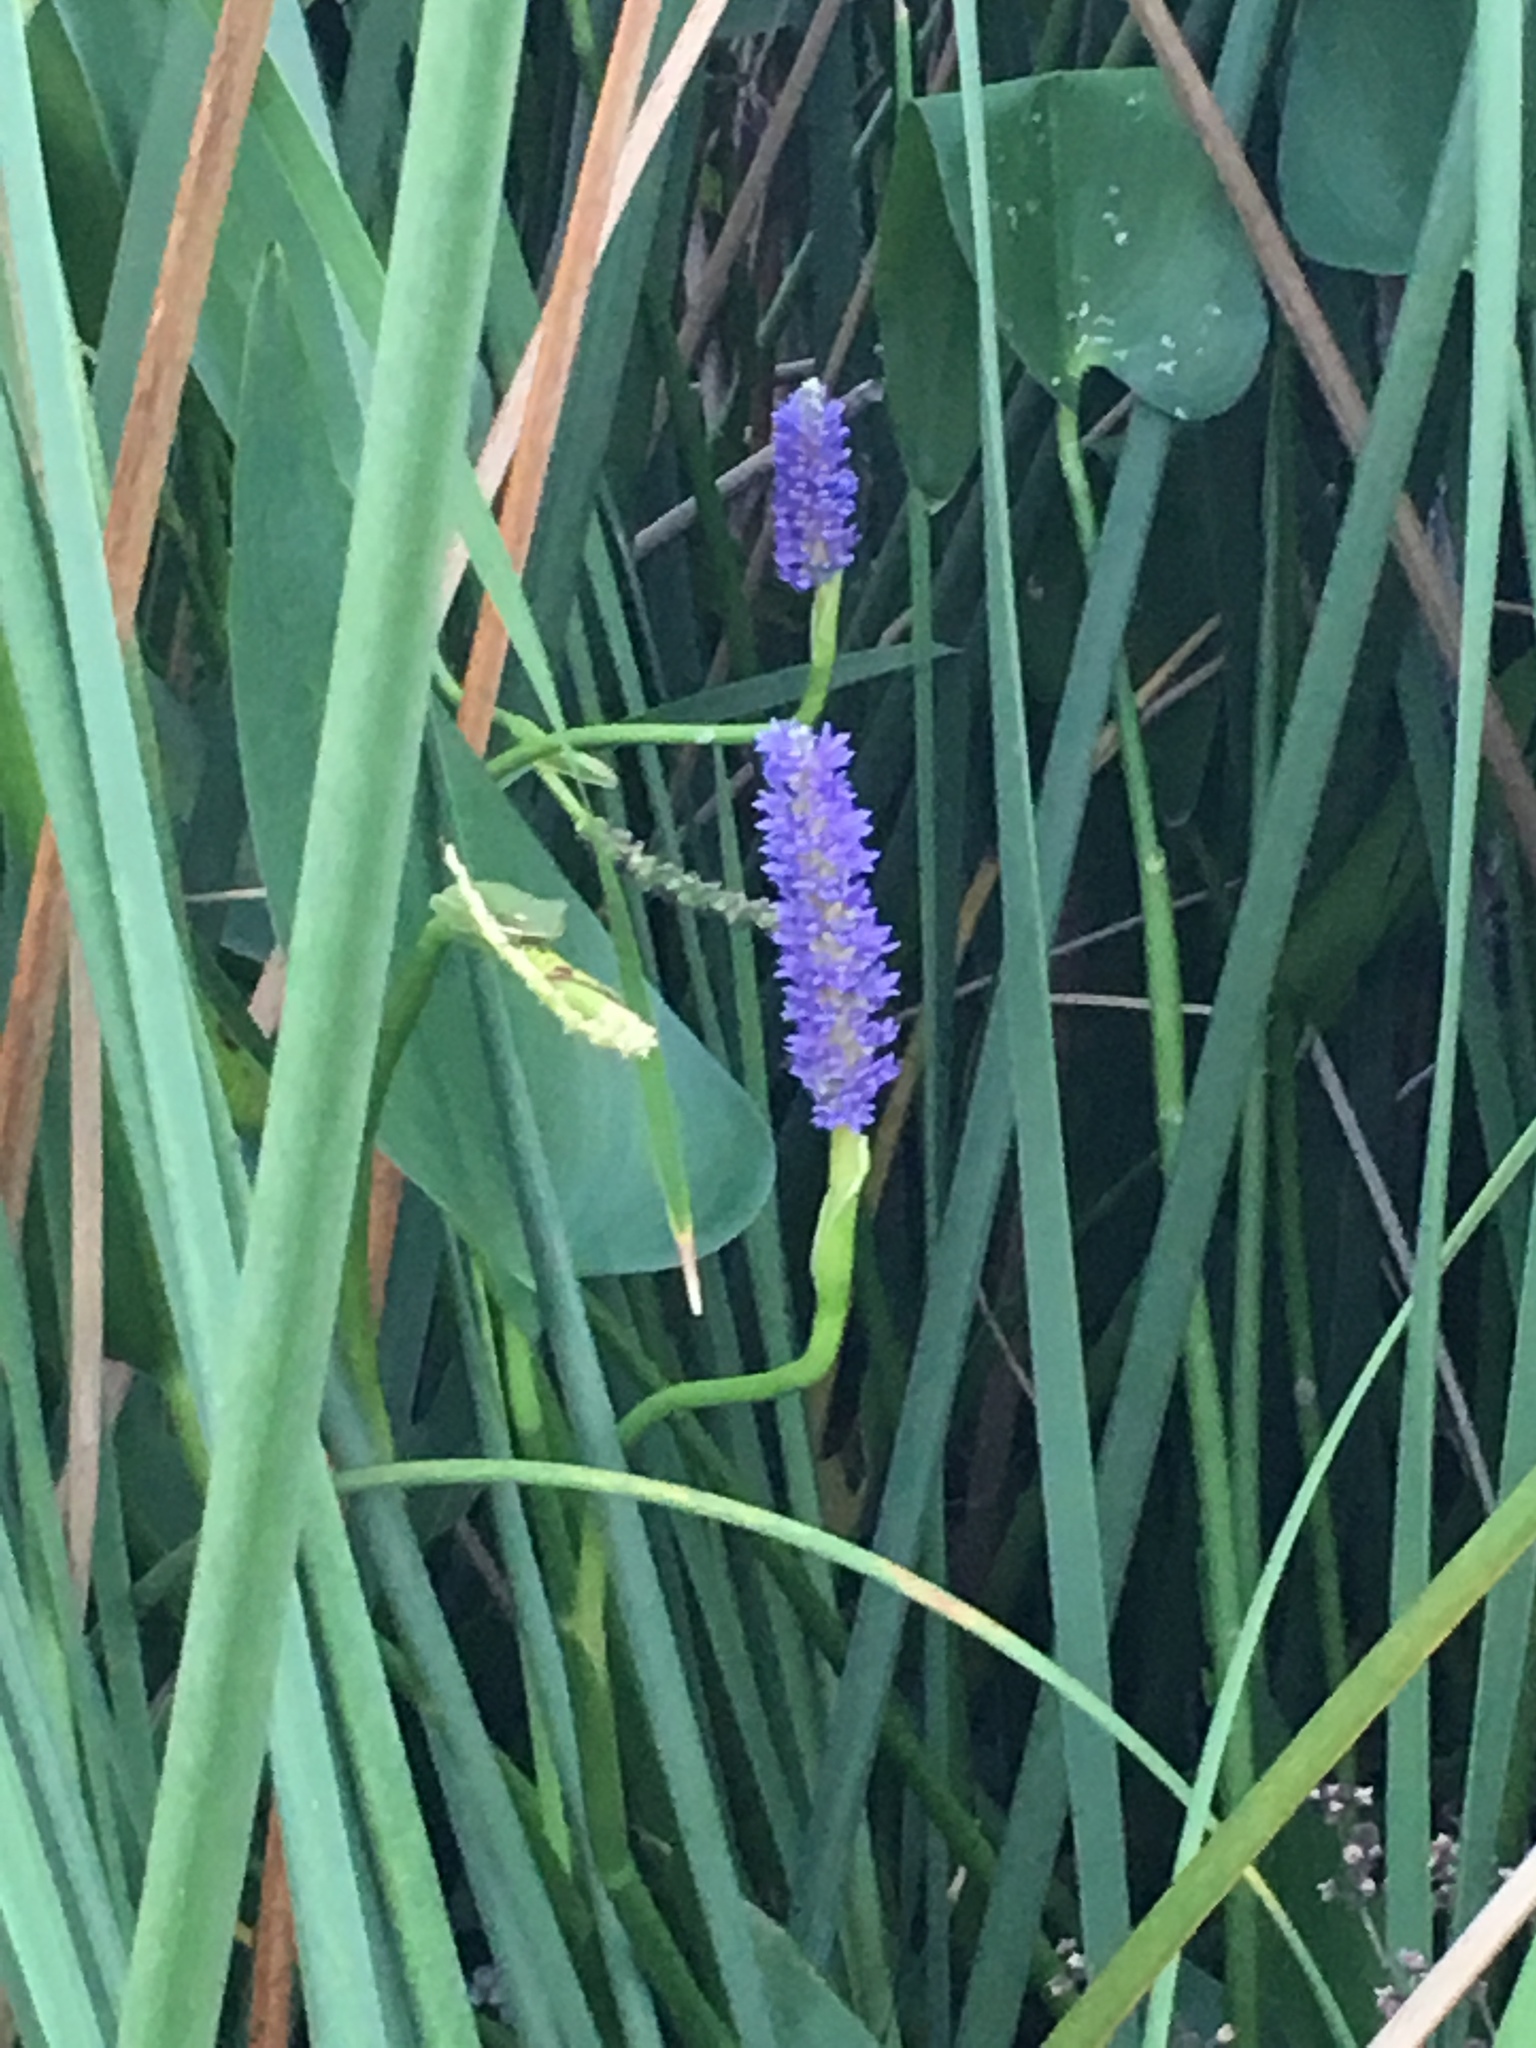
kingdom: Plantae
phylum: Tracheophyta
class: Liliopsida
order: Commelinales
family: Pontederiaceae
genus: Pontederia
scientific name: Pontederia cordata
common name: Pickerelweed
